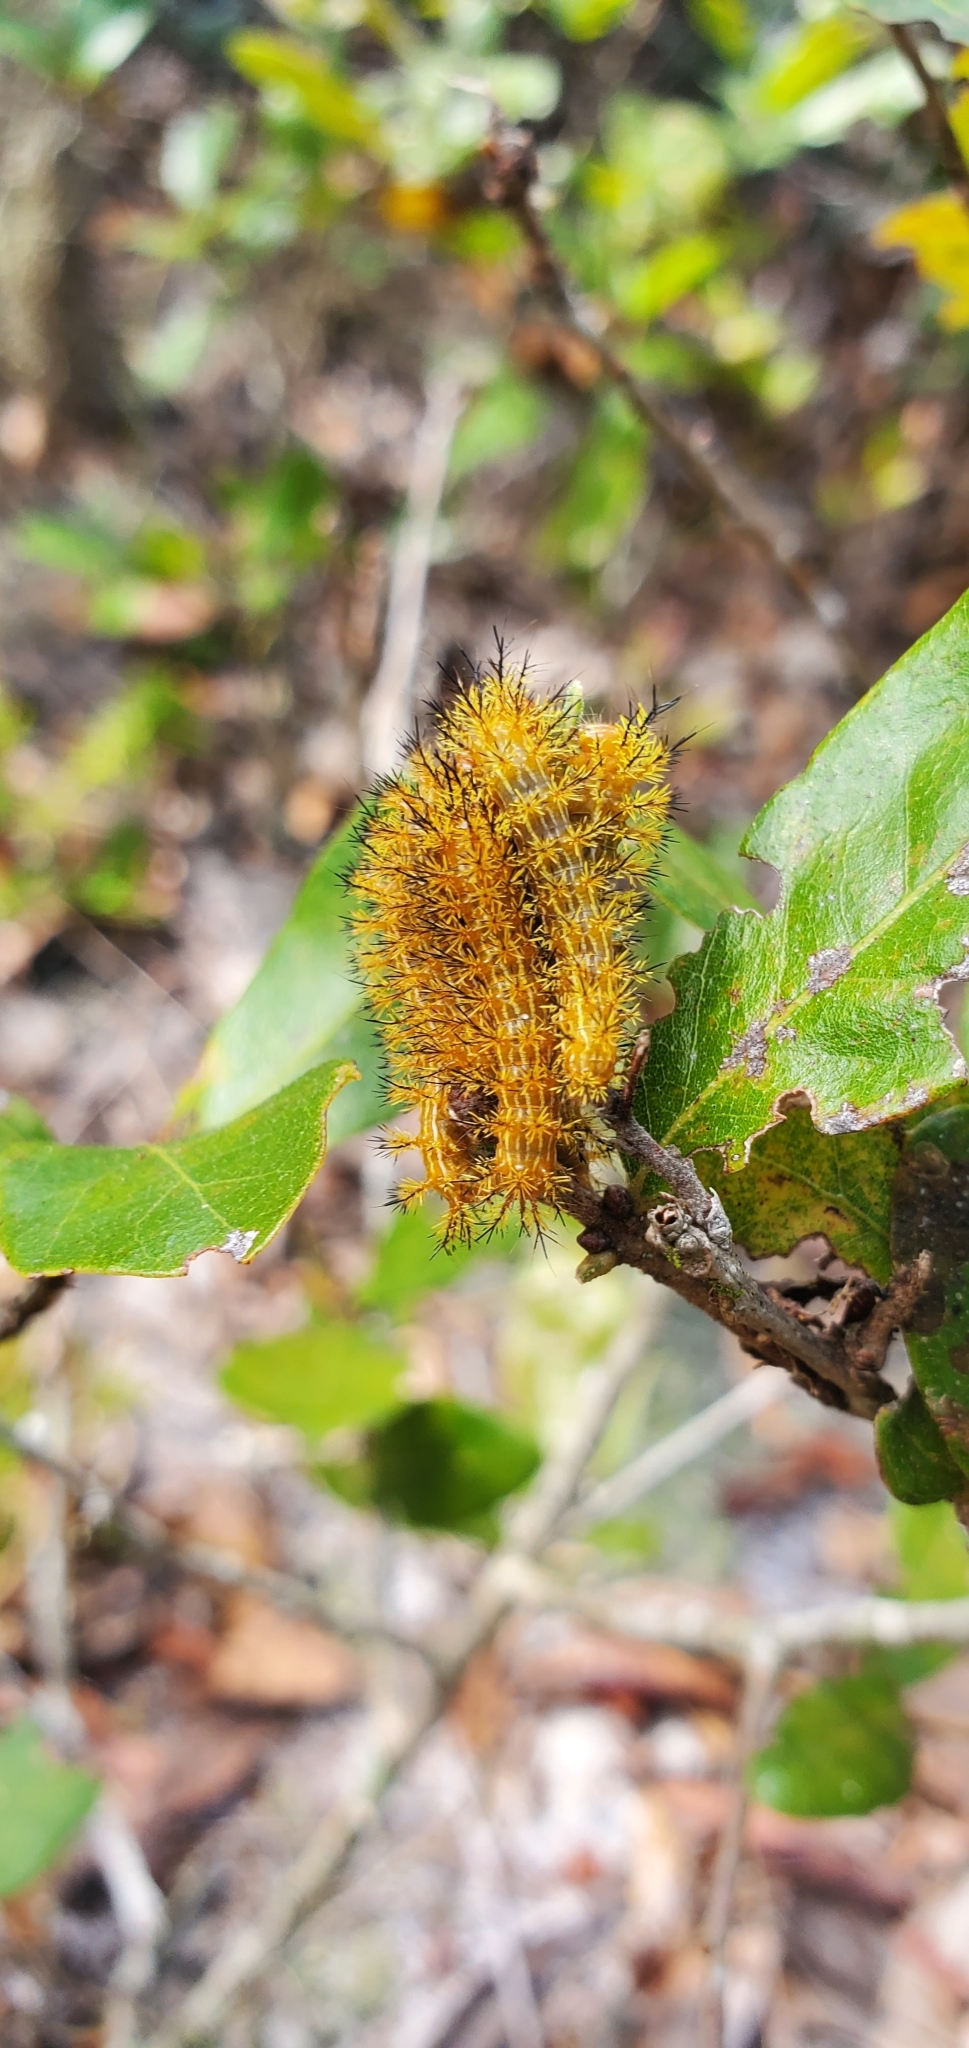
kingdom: Animalia
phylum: Arthropoda
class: Insecta
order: Lepidoptera
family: Saturniidae
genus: Automeris
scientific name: Automeris io
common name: Io moth
